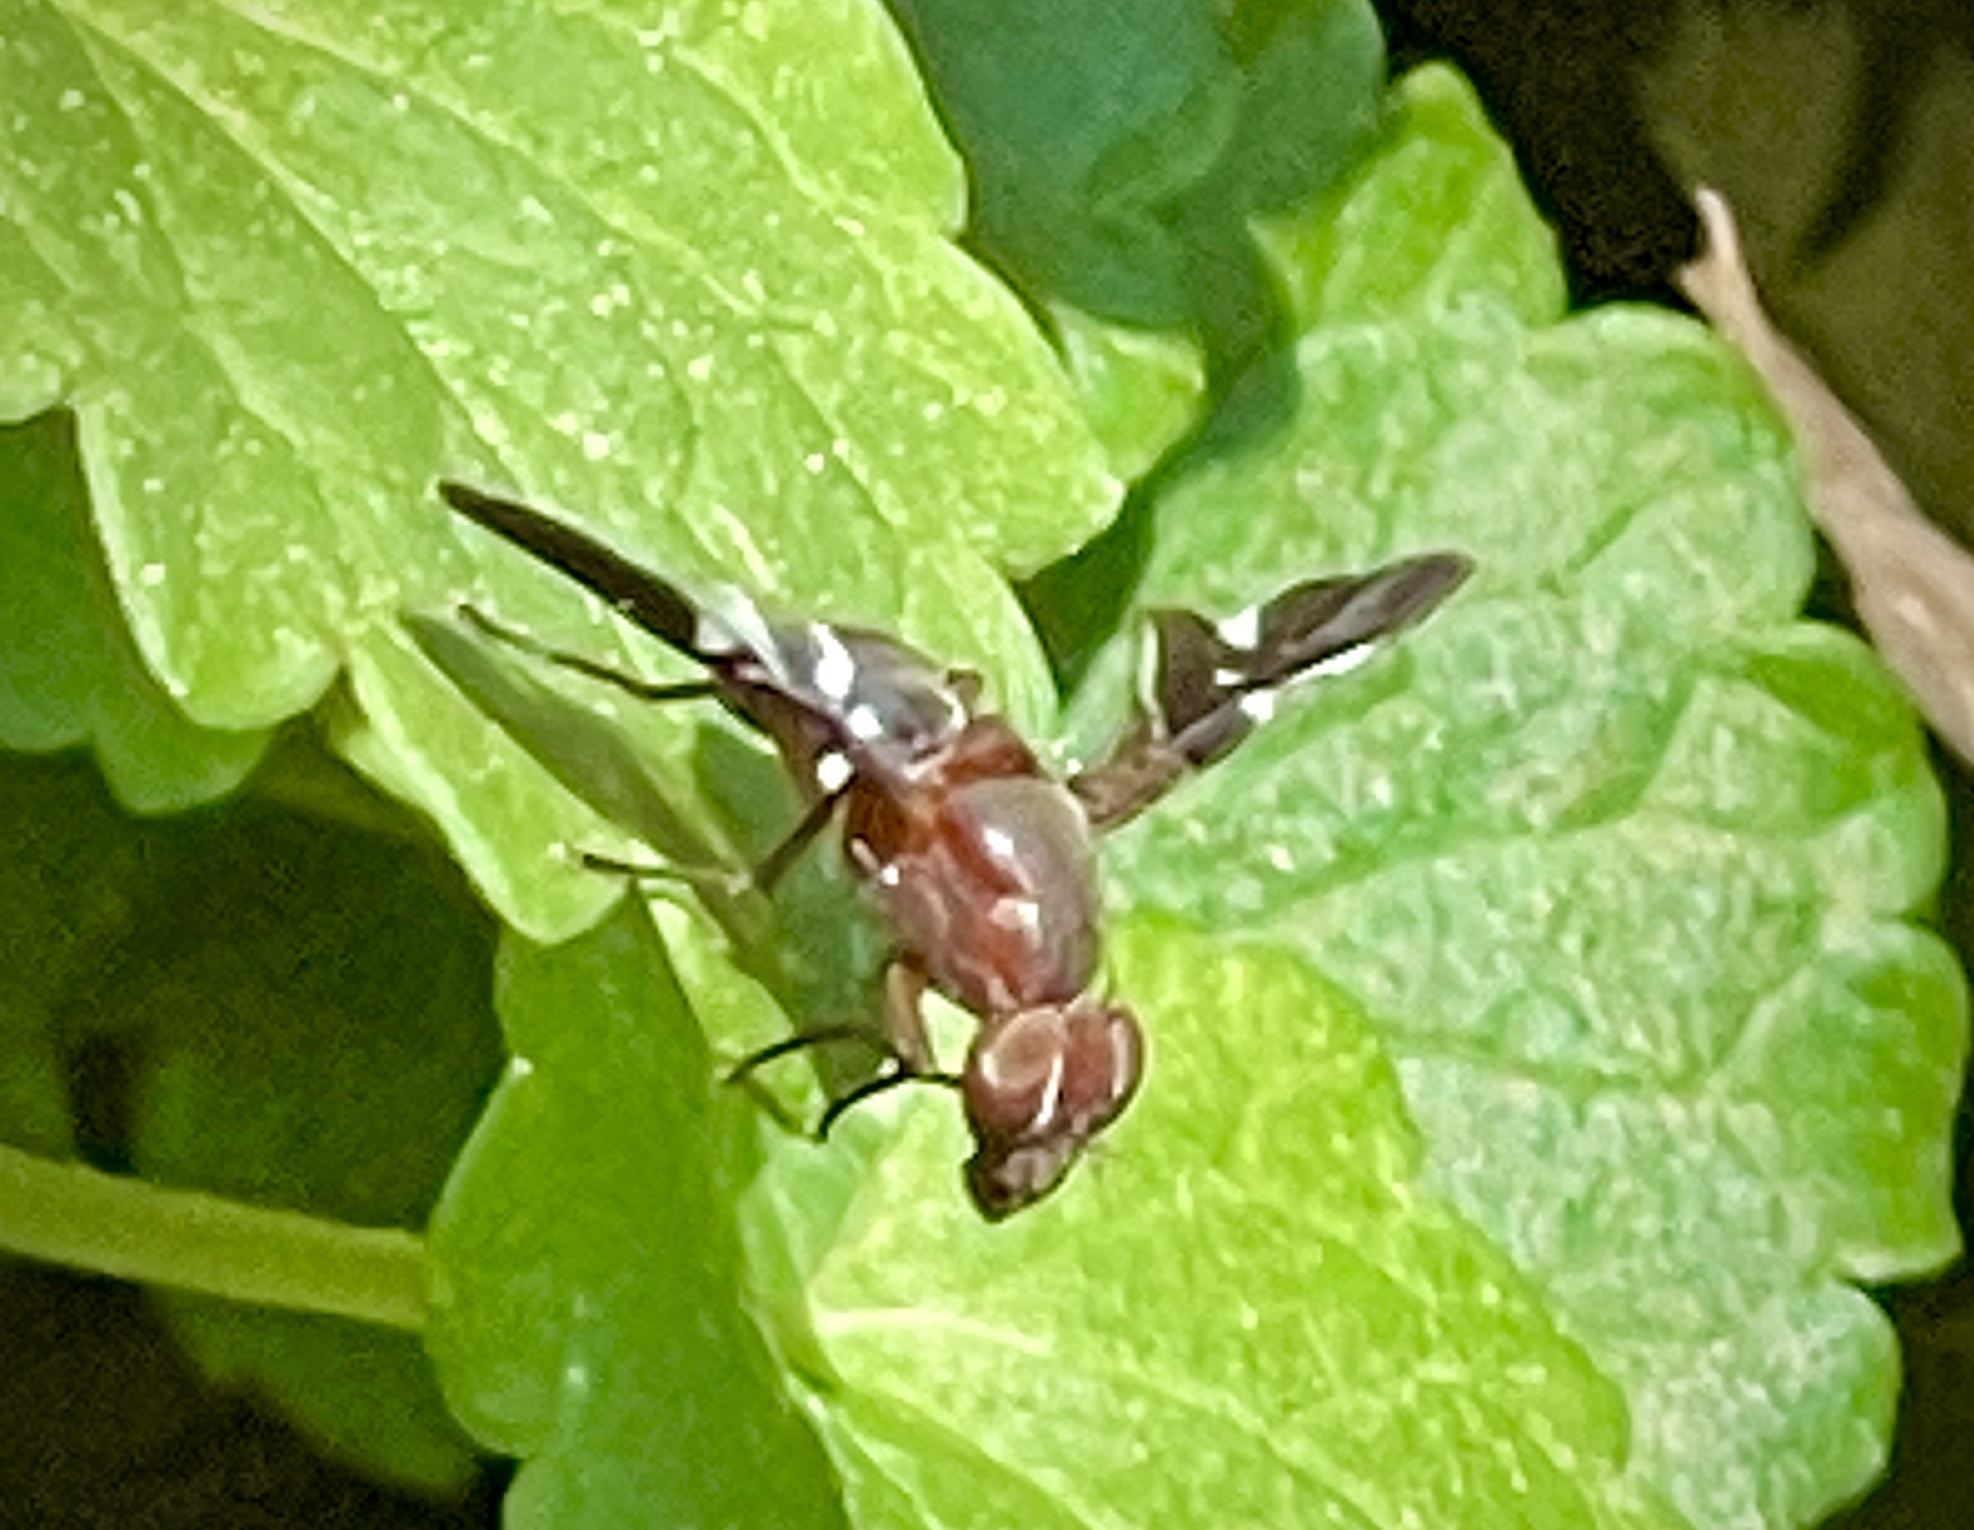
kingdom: Animalia
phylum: Arthropoda
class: Insecta
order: Diptera
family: Ulidiidae
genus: Delphinia
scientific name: Delphinia picta
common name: Common picture-winged fly
